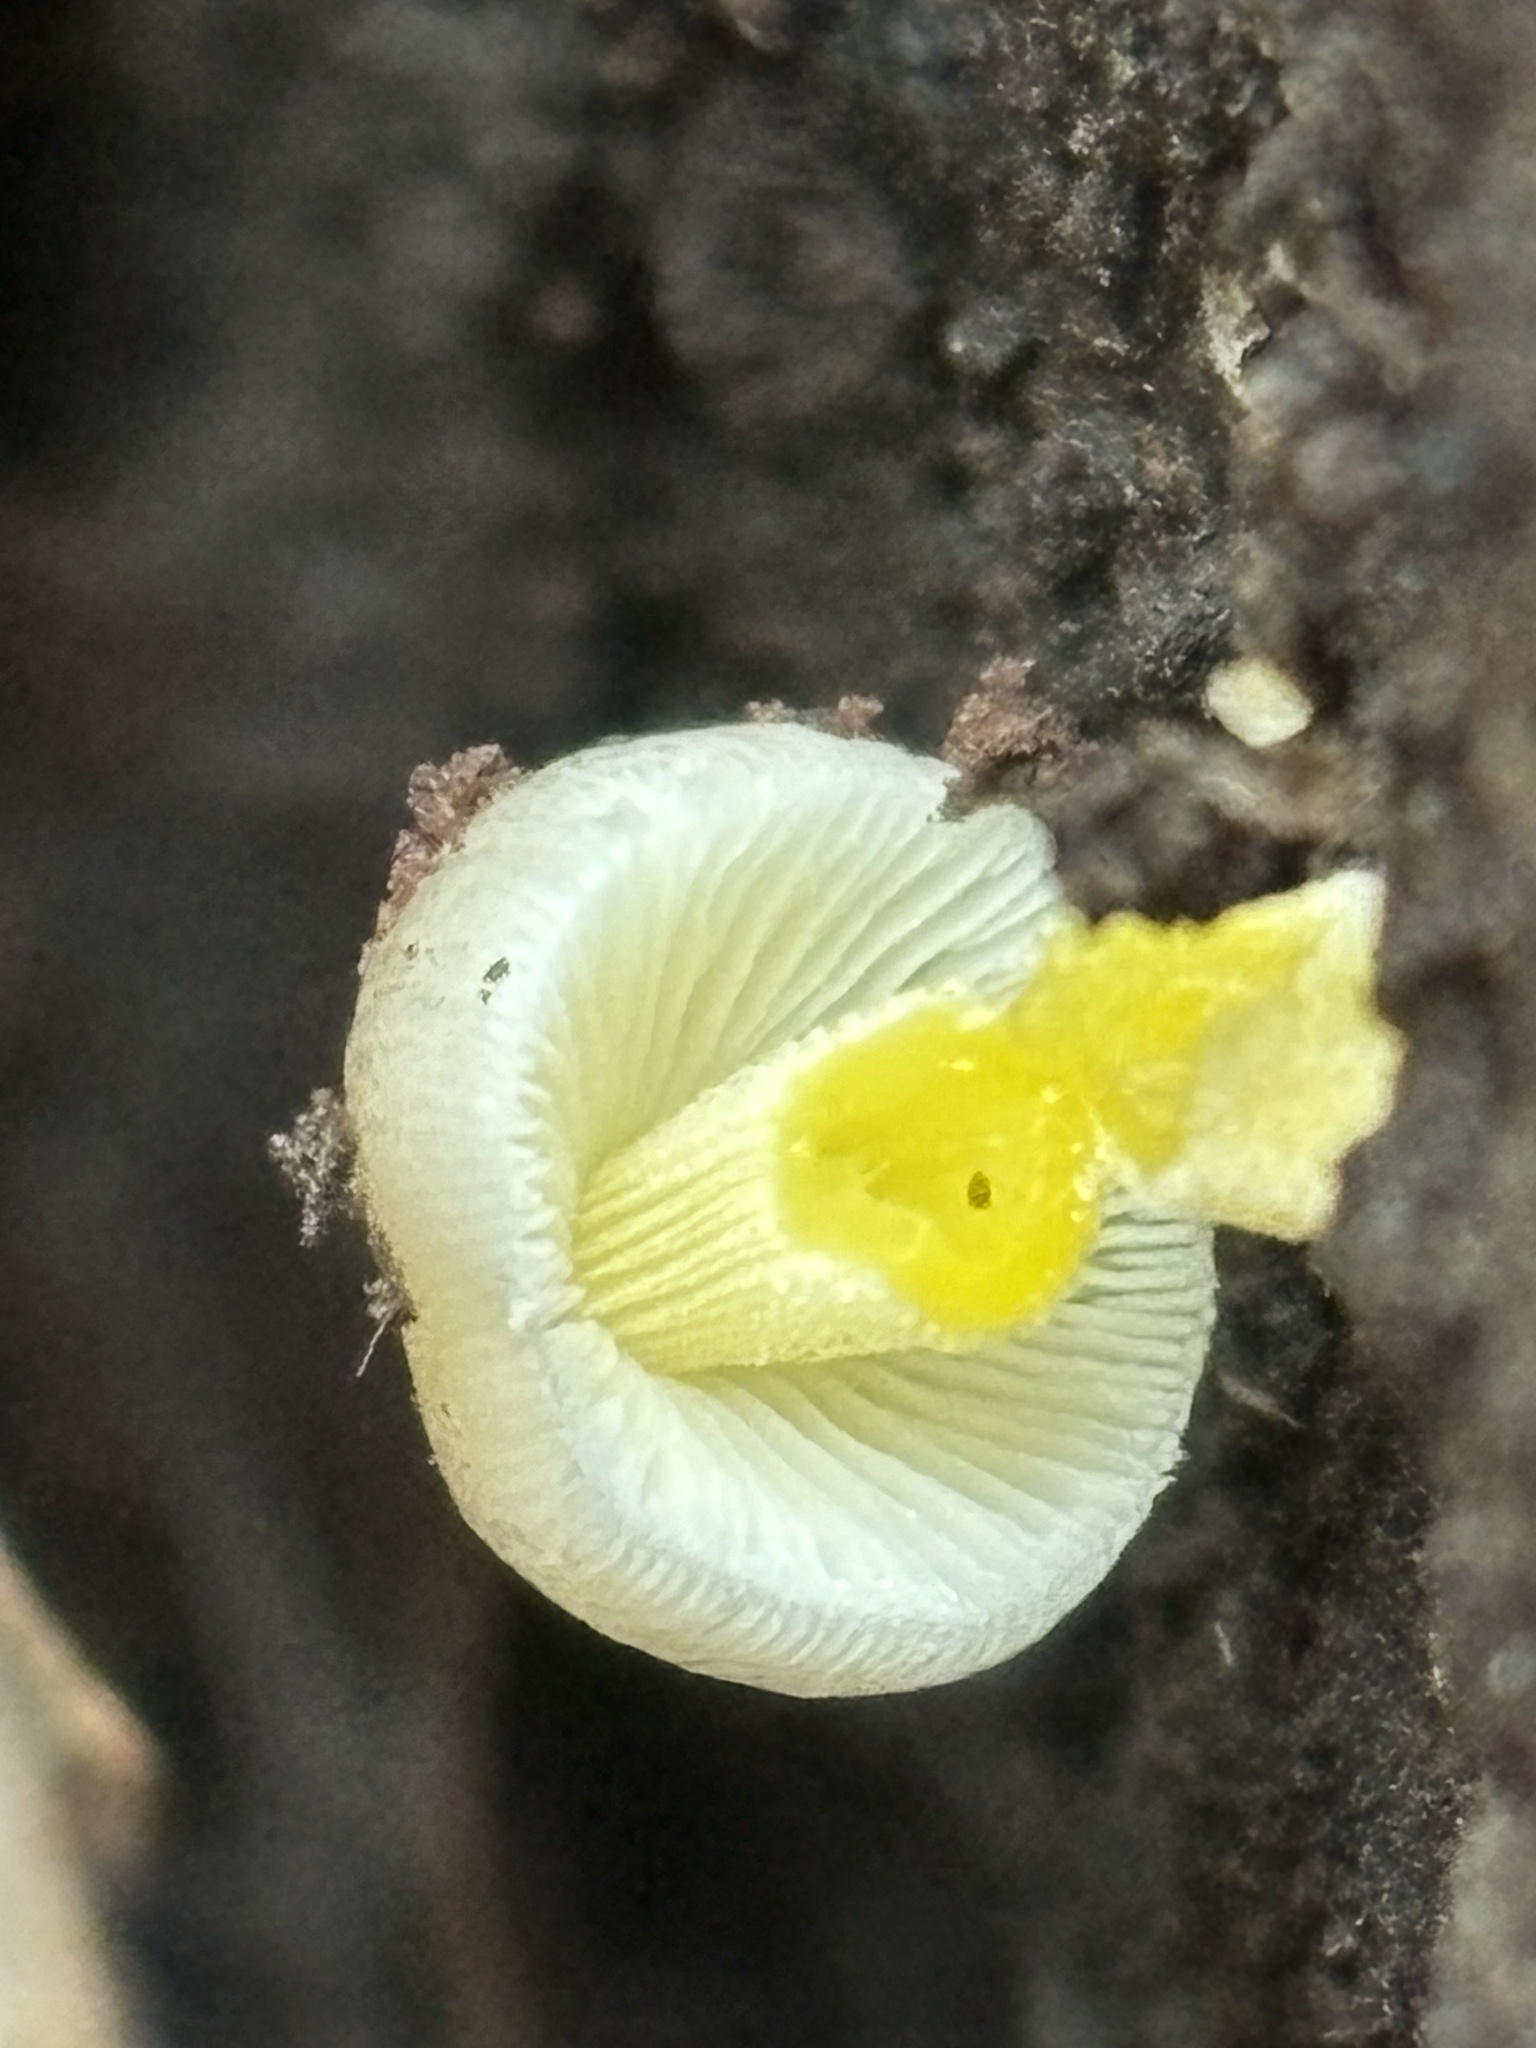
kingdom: Fungi
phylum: Basidiomycota
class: Agaricomycetes
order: Agaricales
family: Bolbitiaceae
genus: Bolbitius
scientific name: Bolbitius reticulatus
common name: Netted fieldcap
